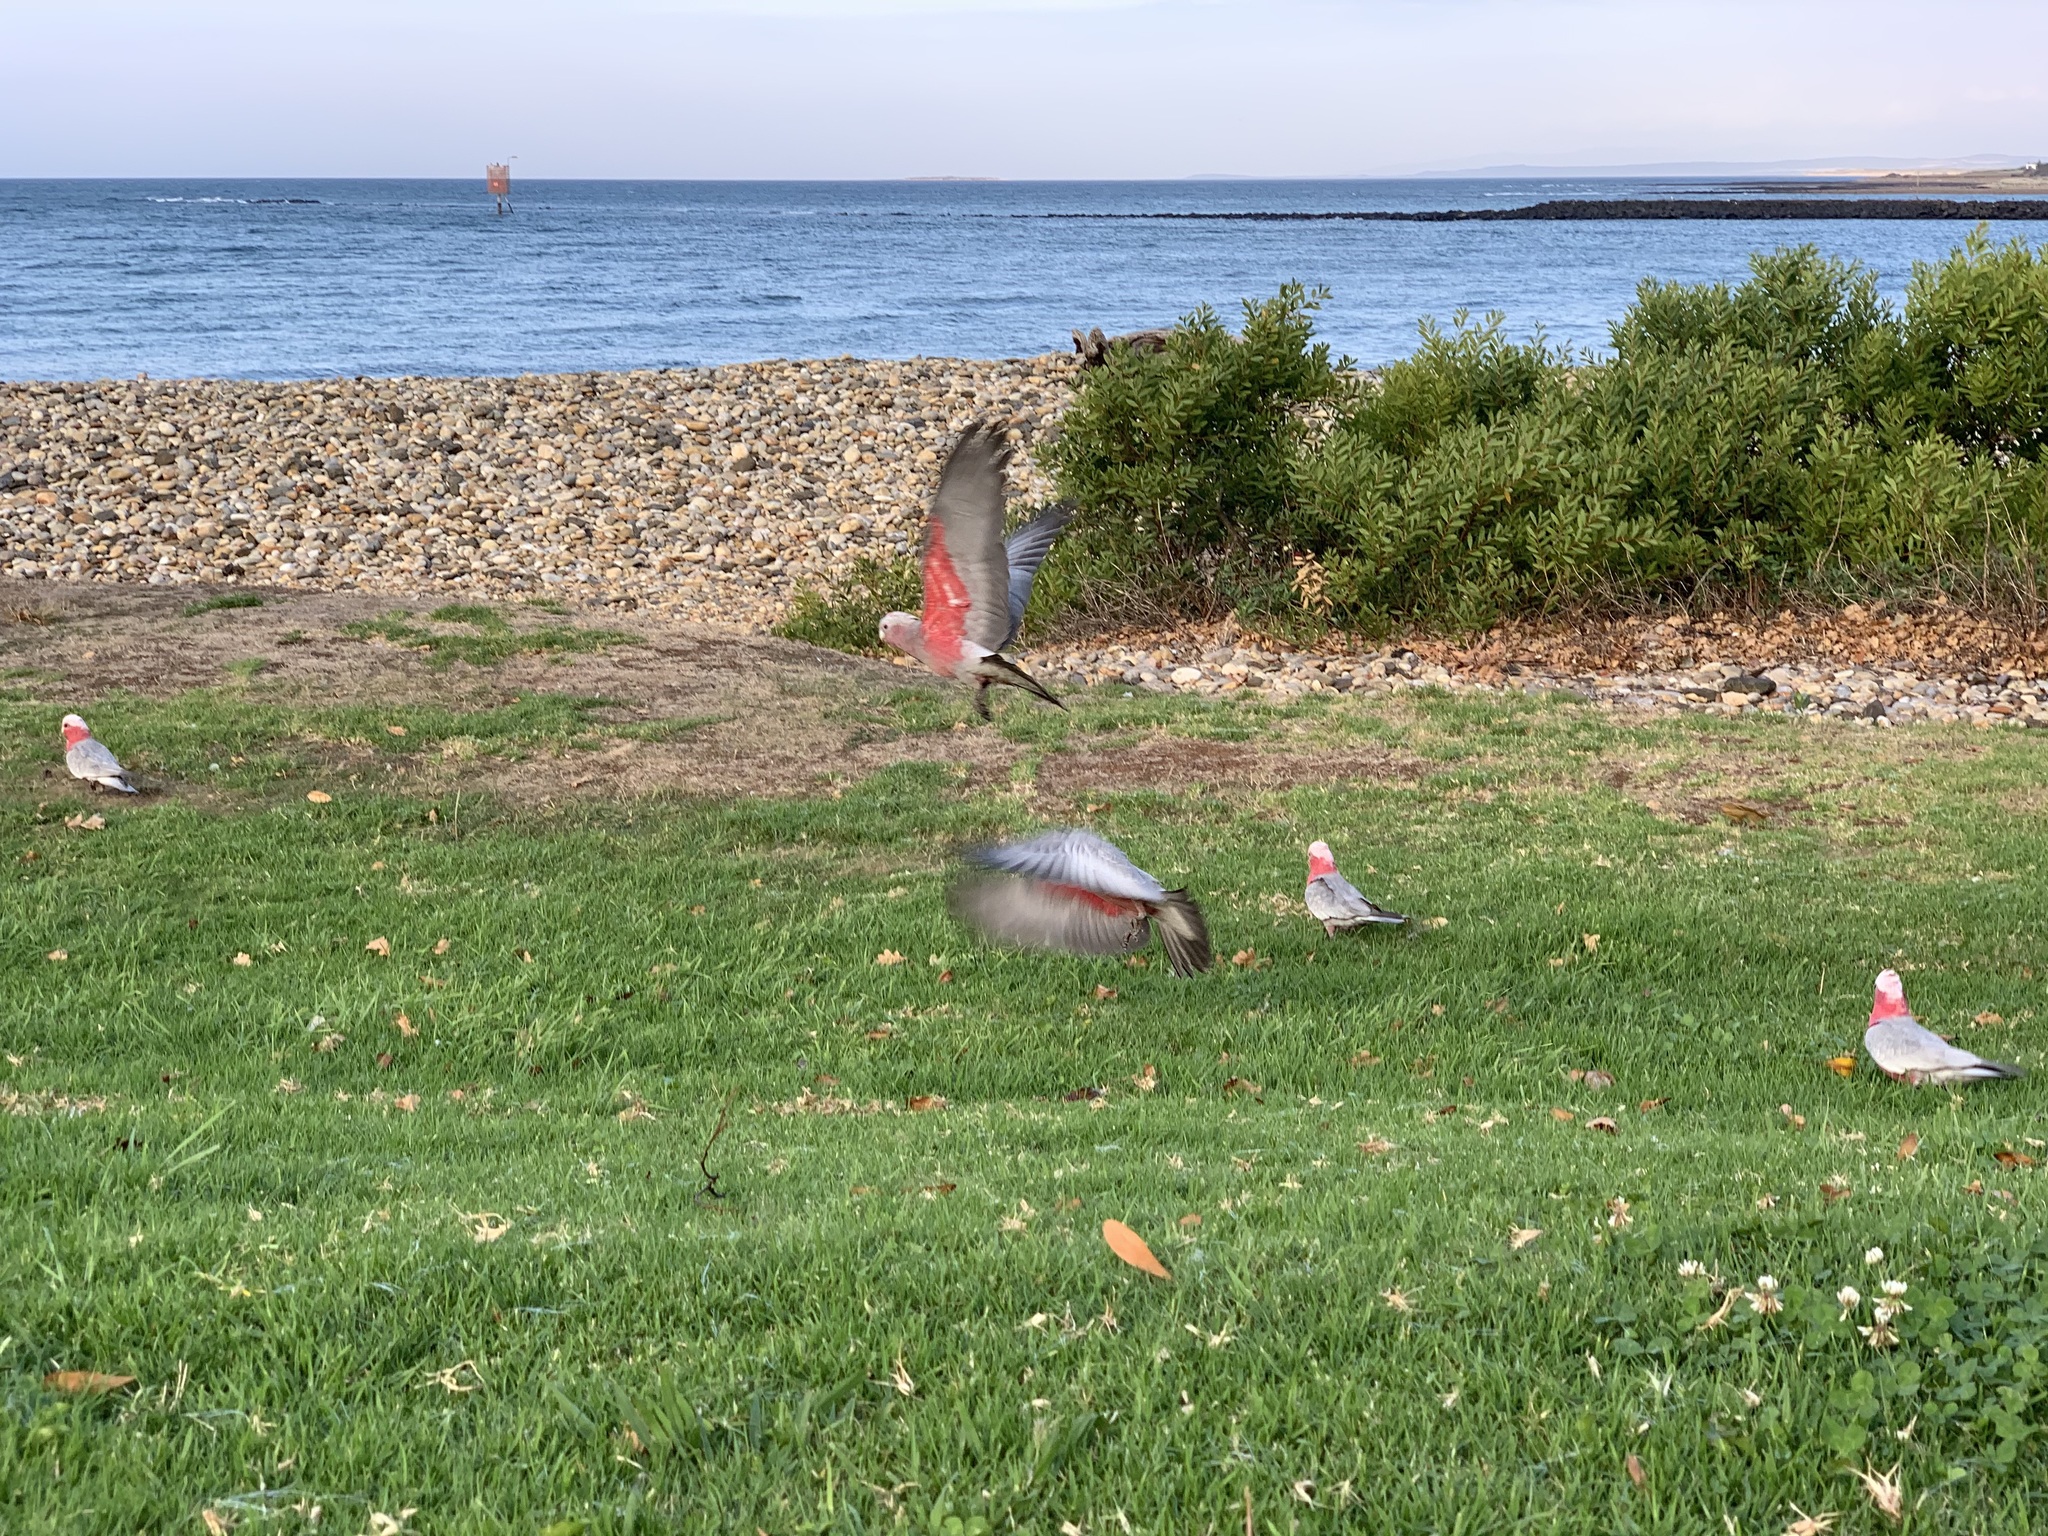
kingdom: Animalia
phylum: Chordata
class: Aves
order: Psittaciformes
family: Psittacidae
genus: Eolophus
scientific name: Eolophus roseicapilla
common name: Galah
